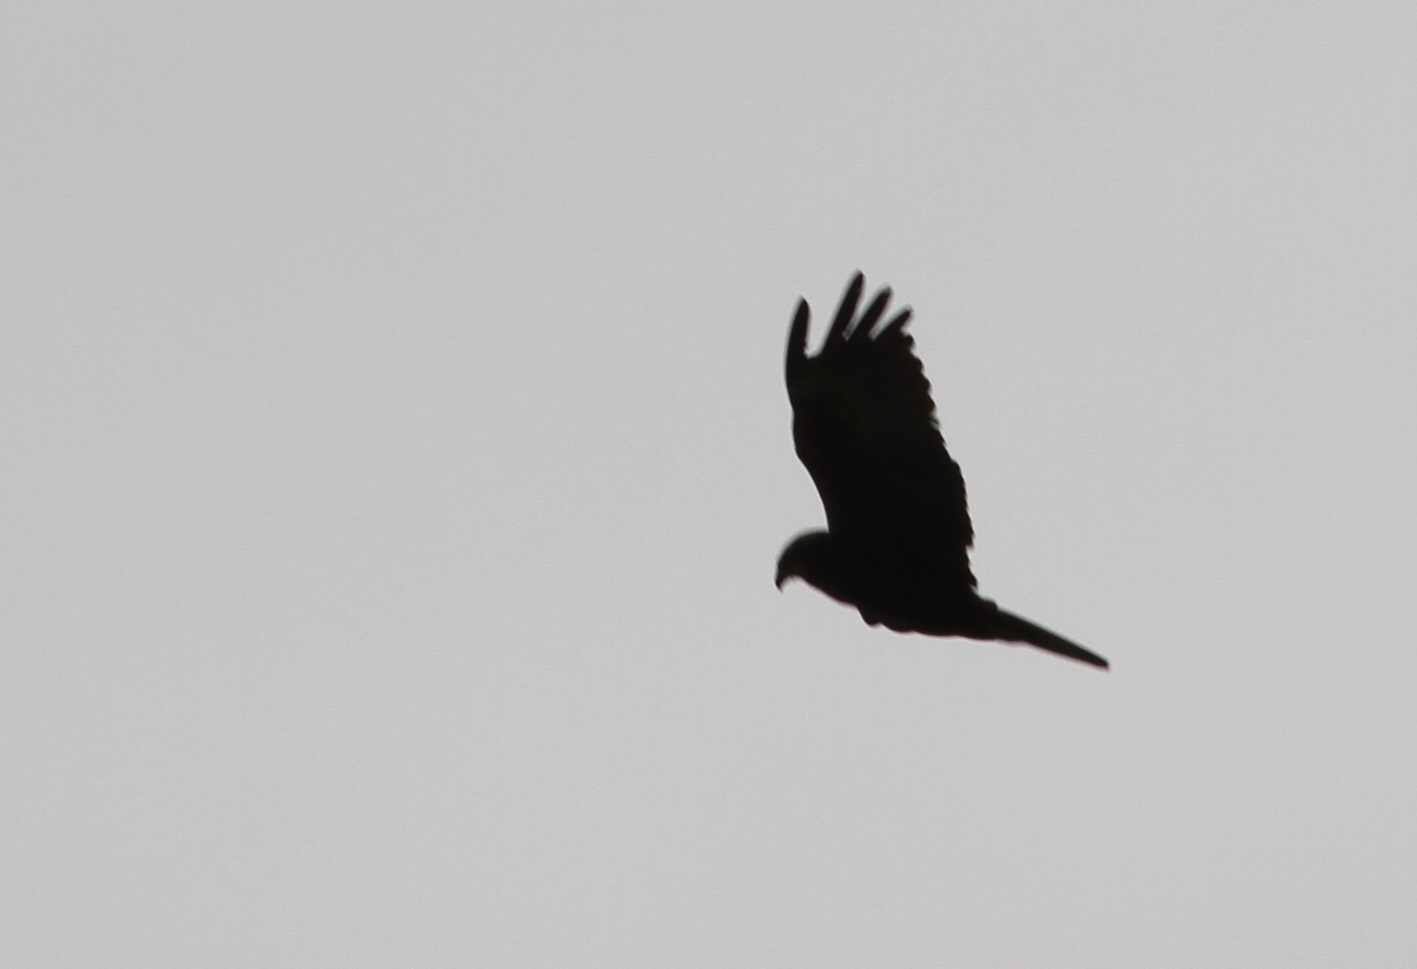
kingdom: Animalia
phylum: Chordata
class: Aves
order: Accipitriformes
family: Accipitridae
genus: Circus
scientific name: Circus aeruginosus
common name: Western marsh harrier
